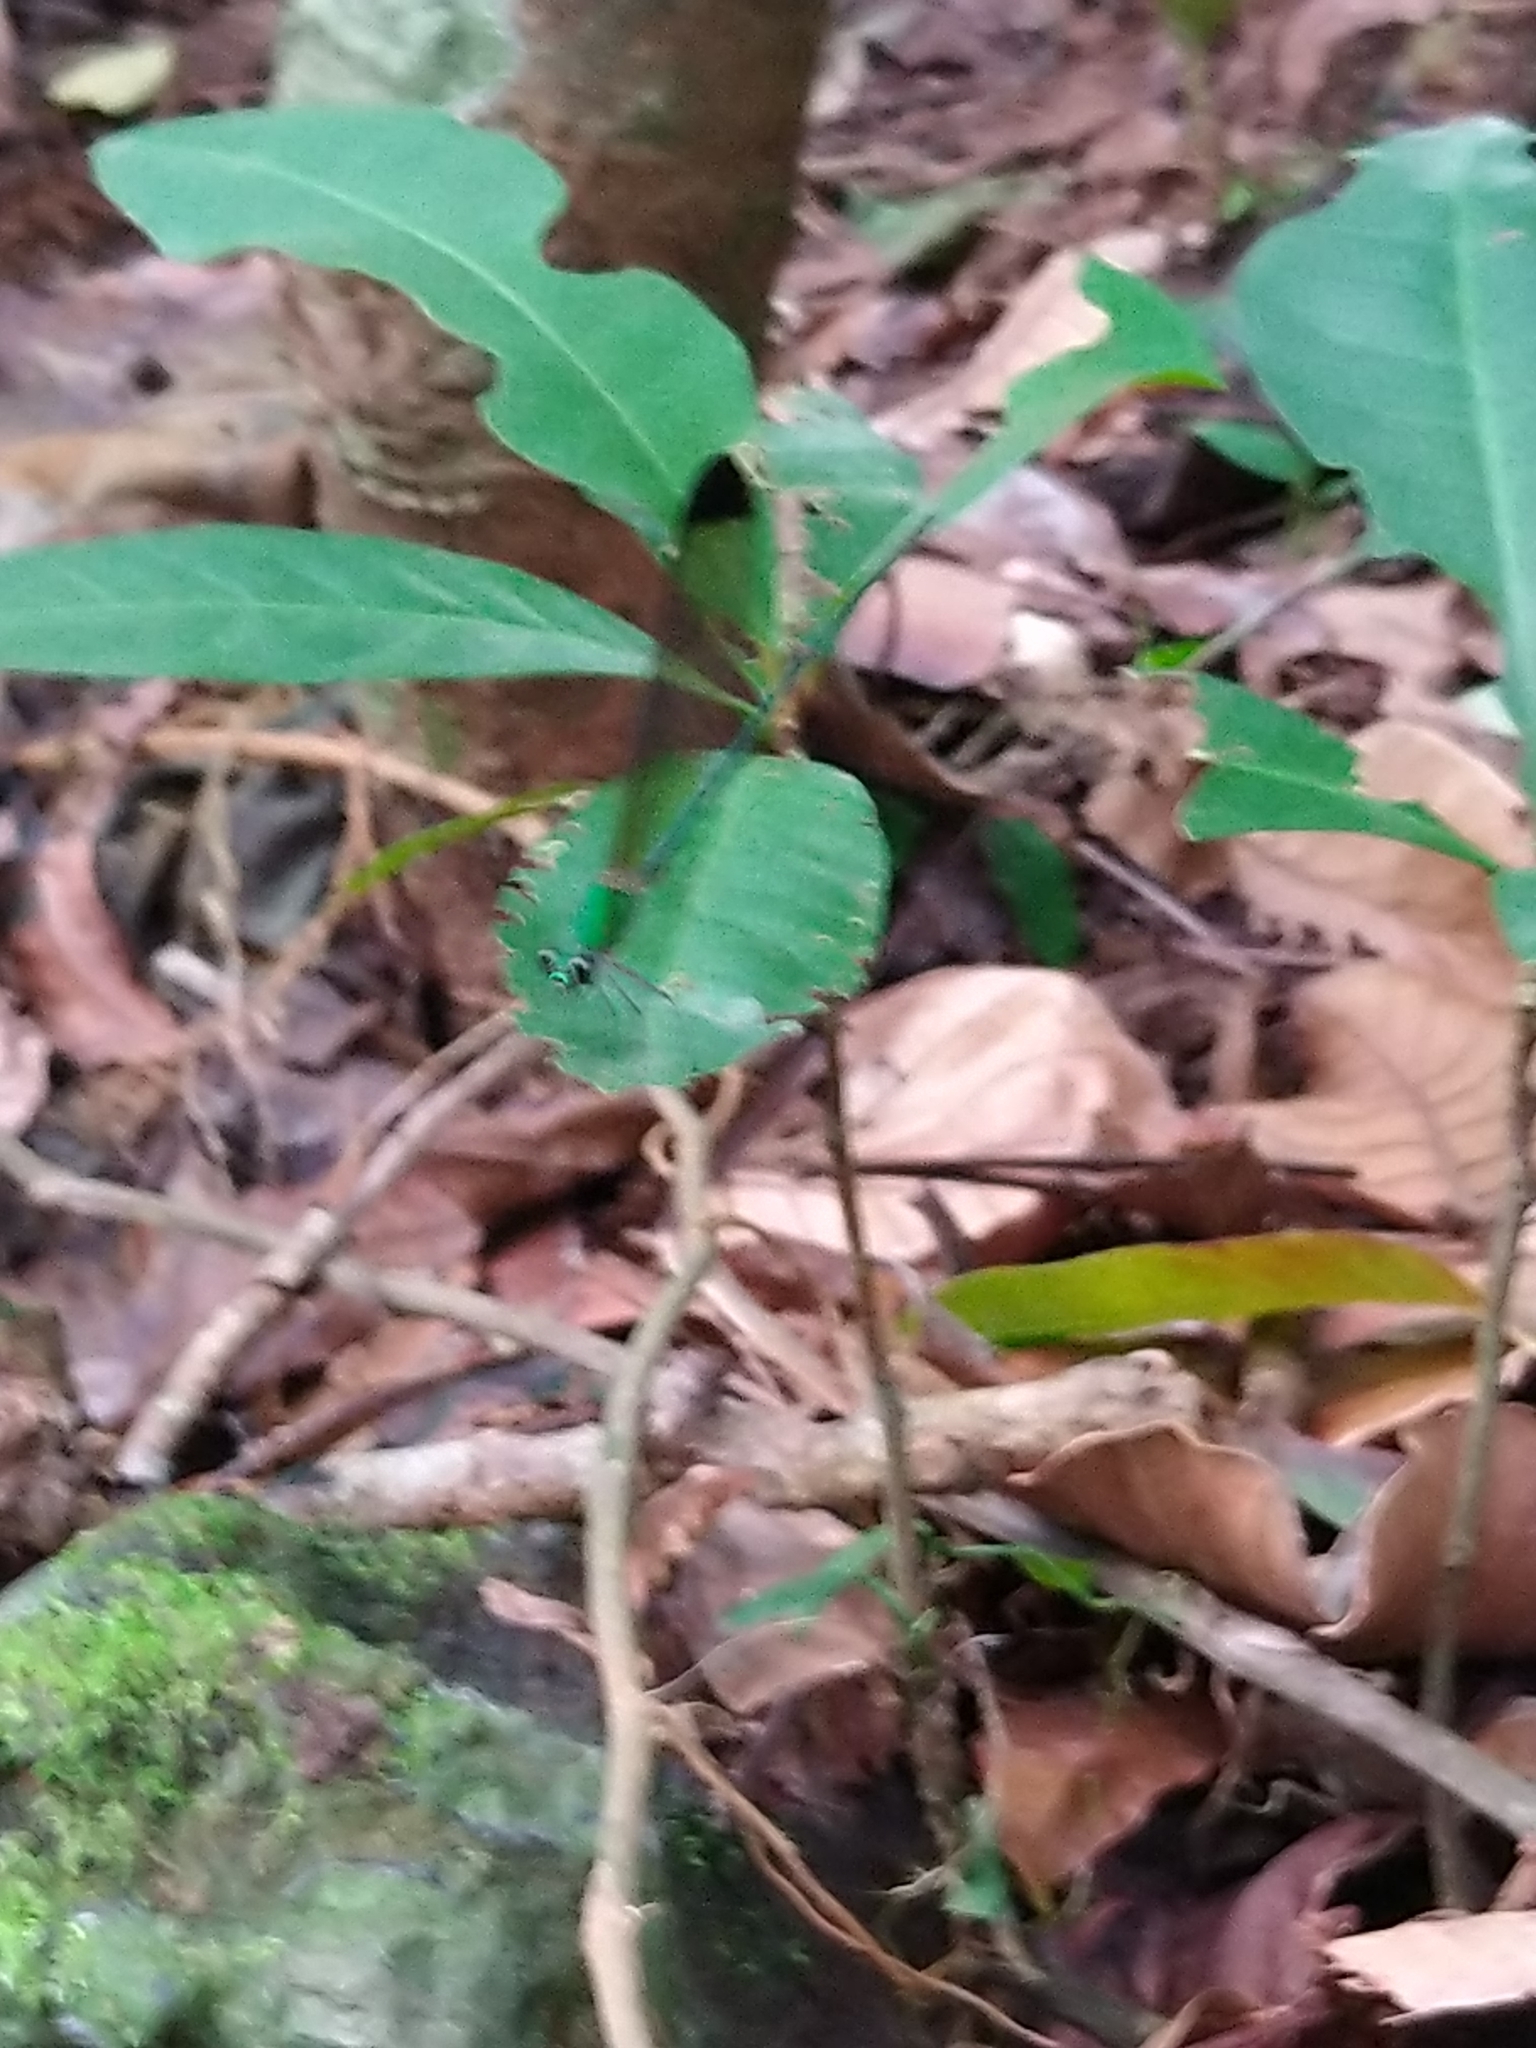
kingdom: Animalia
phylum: Arthropoda
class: Insecta
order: Odonata
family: Calopterygidae
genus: Vestalis
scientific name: Vestalis apicalis
